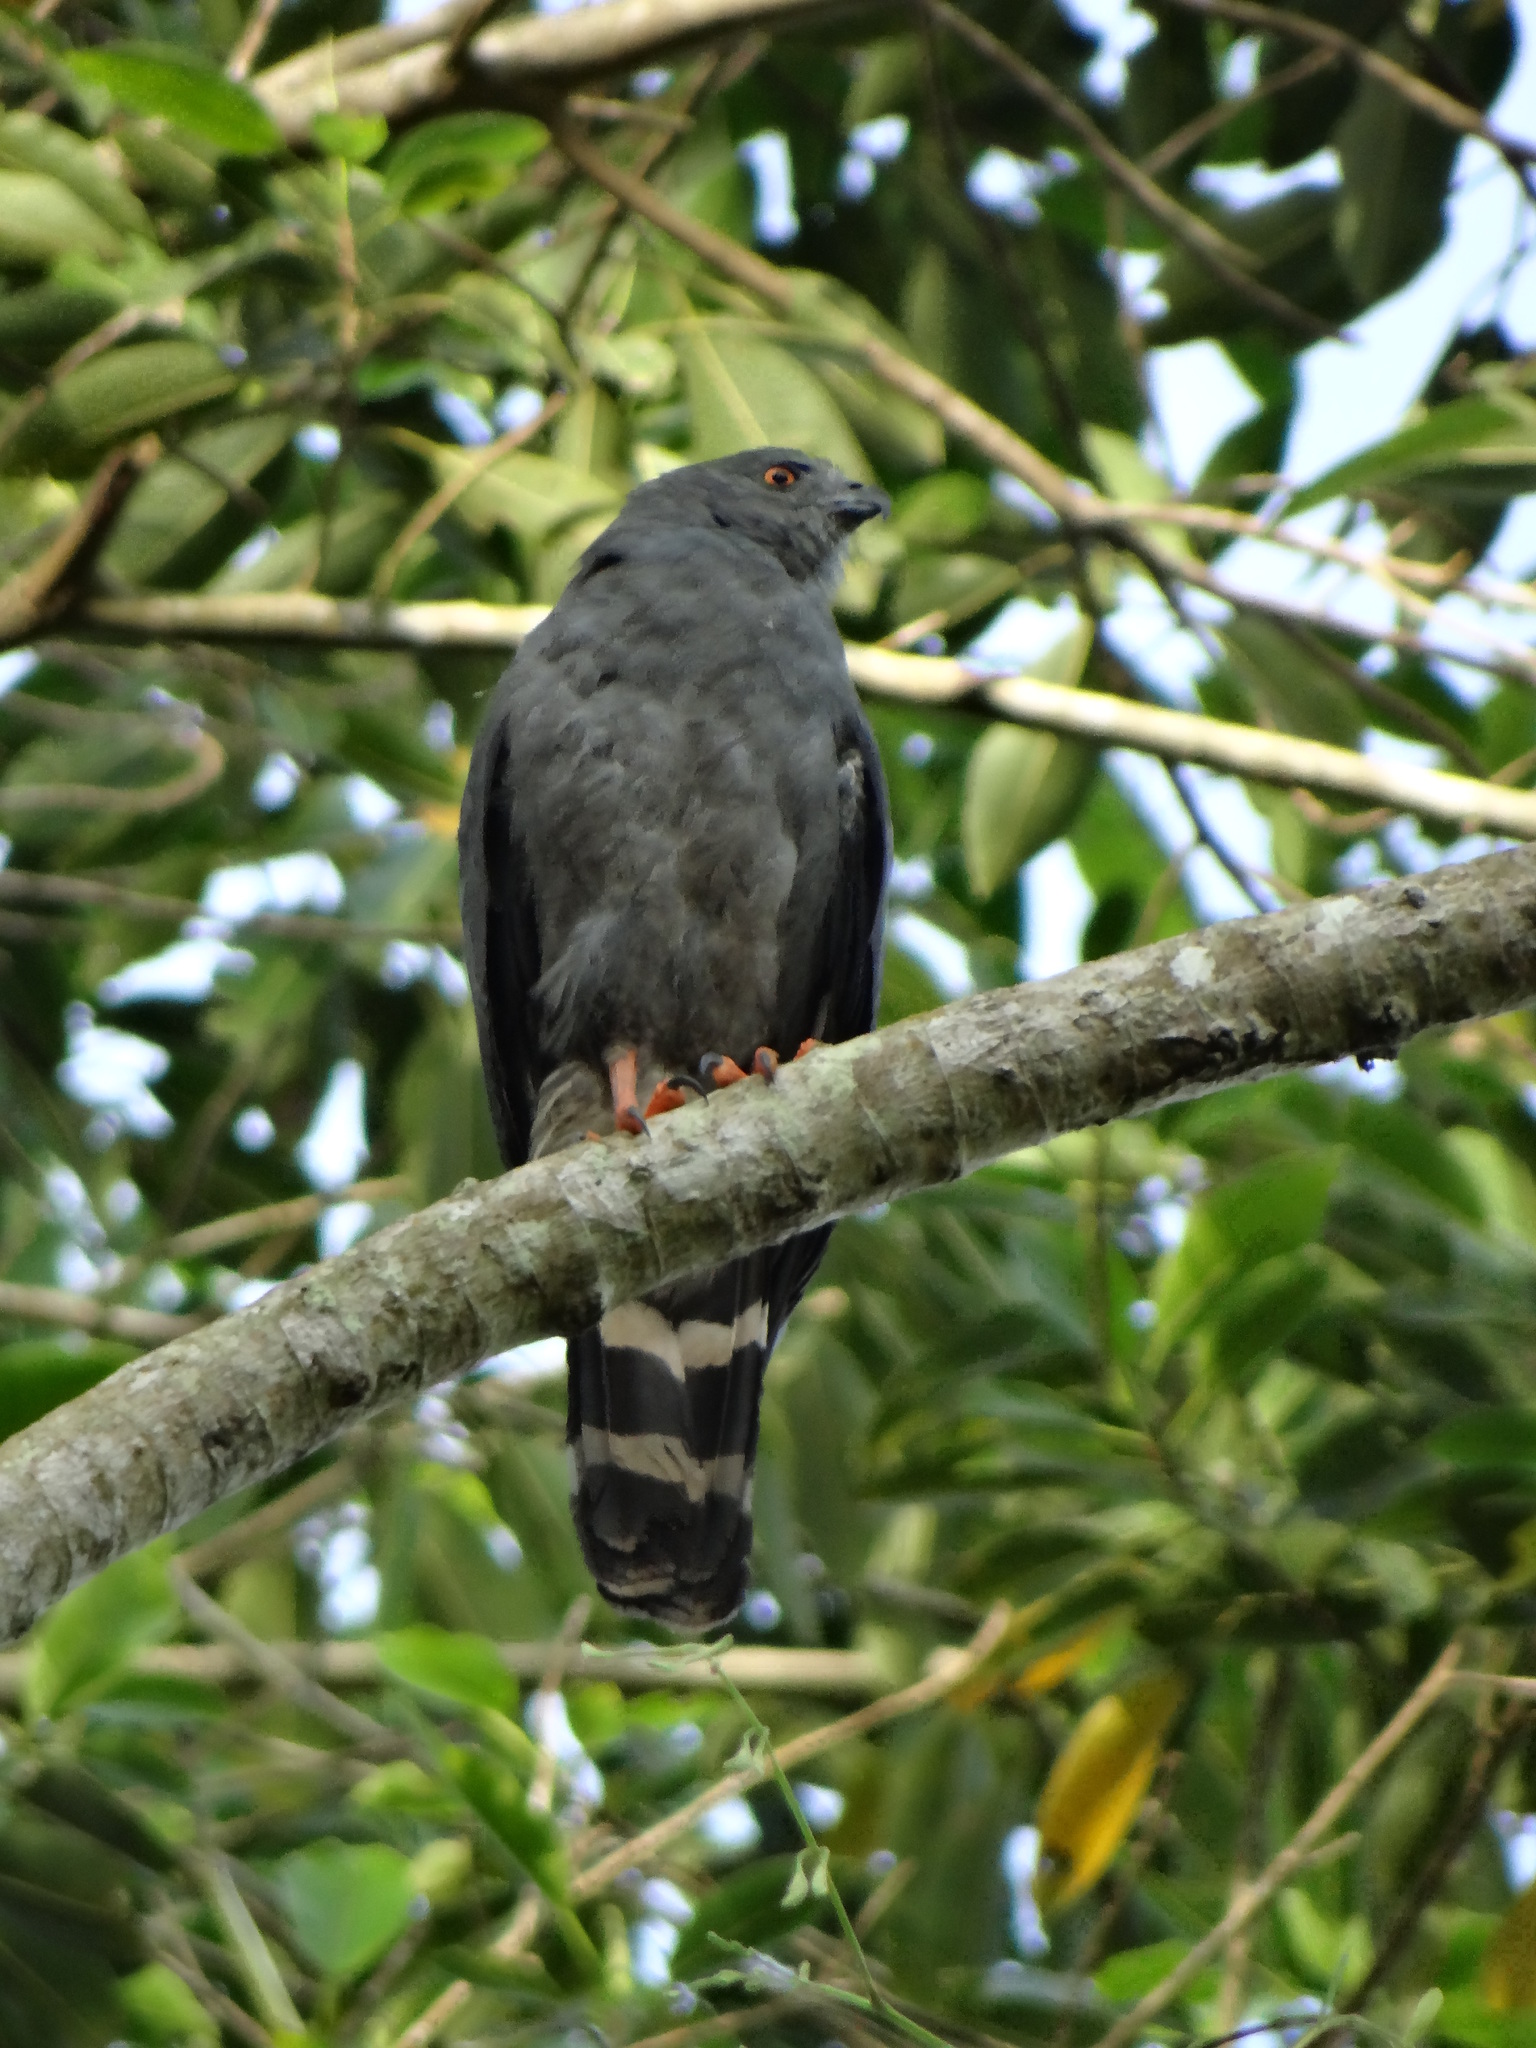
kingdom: Animalia
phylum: Chordata
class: Aves
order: Accipitriformes
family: Accipitridae
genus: Geranospiza
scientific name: Geranospiza caerulescens
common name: Crane hawk
